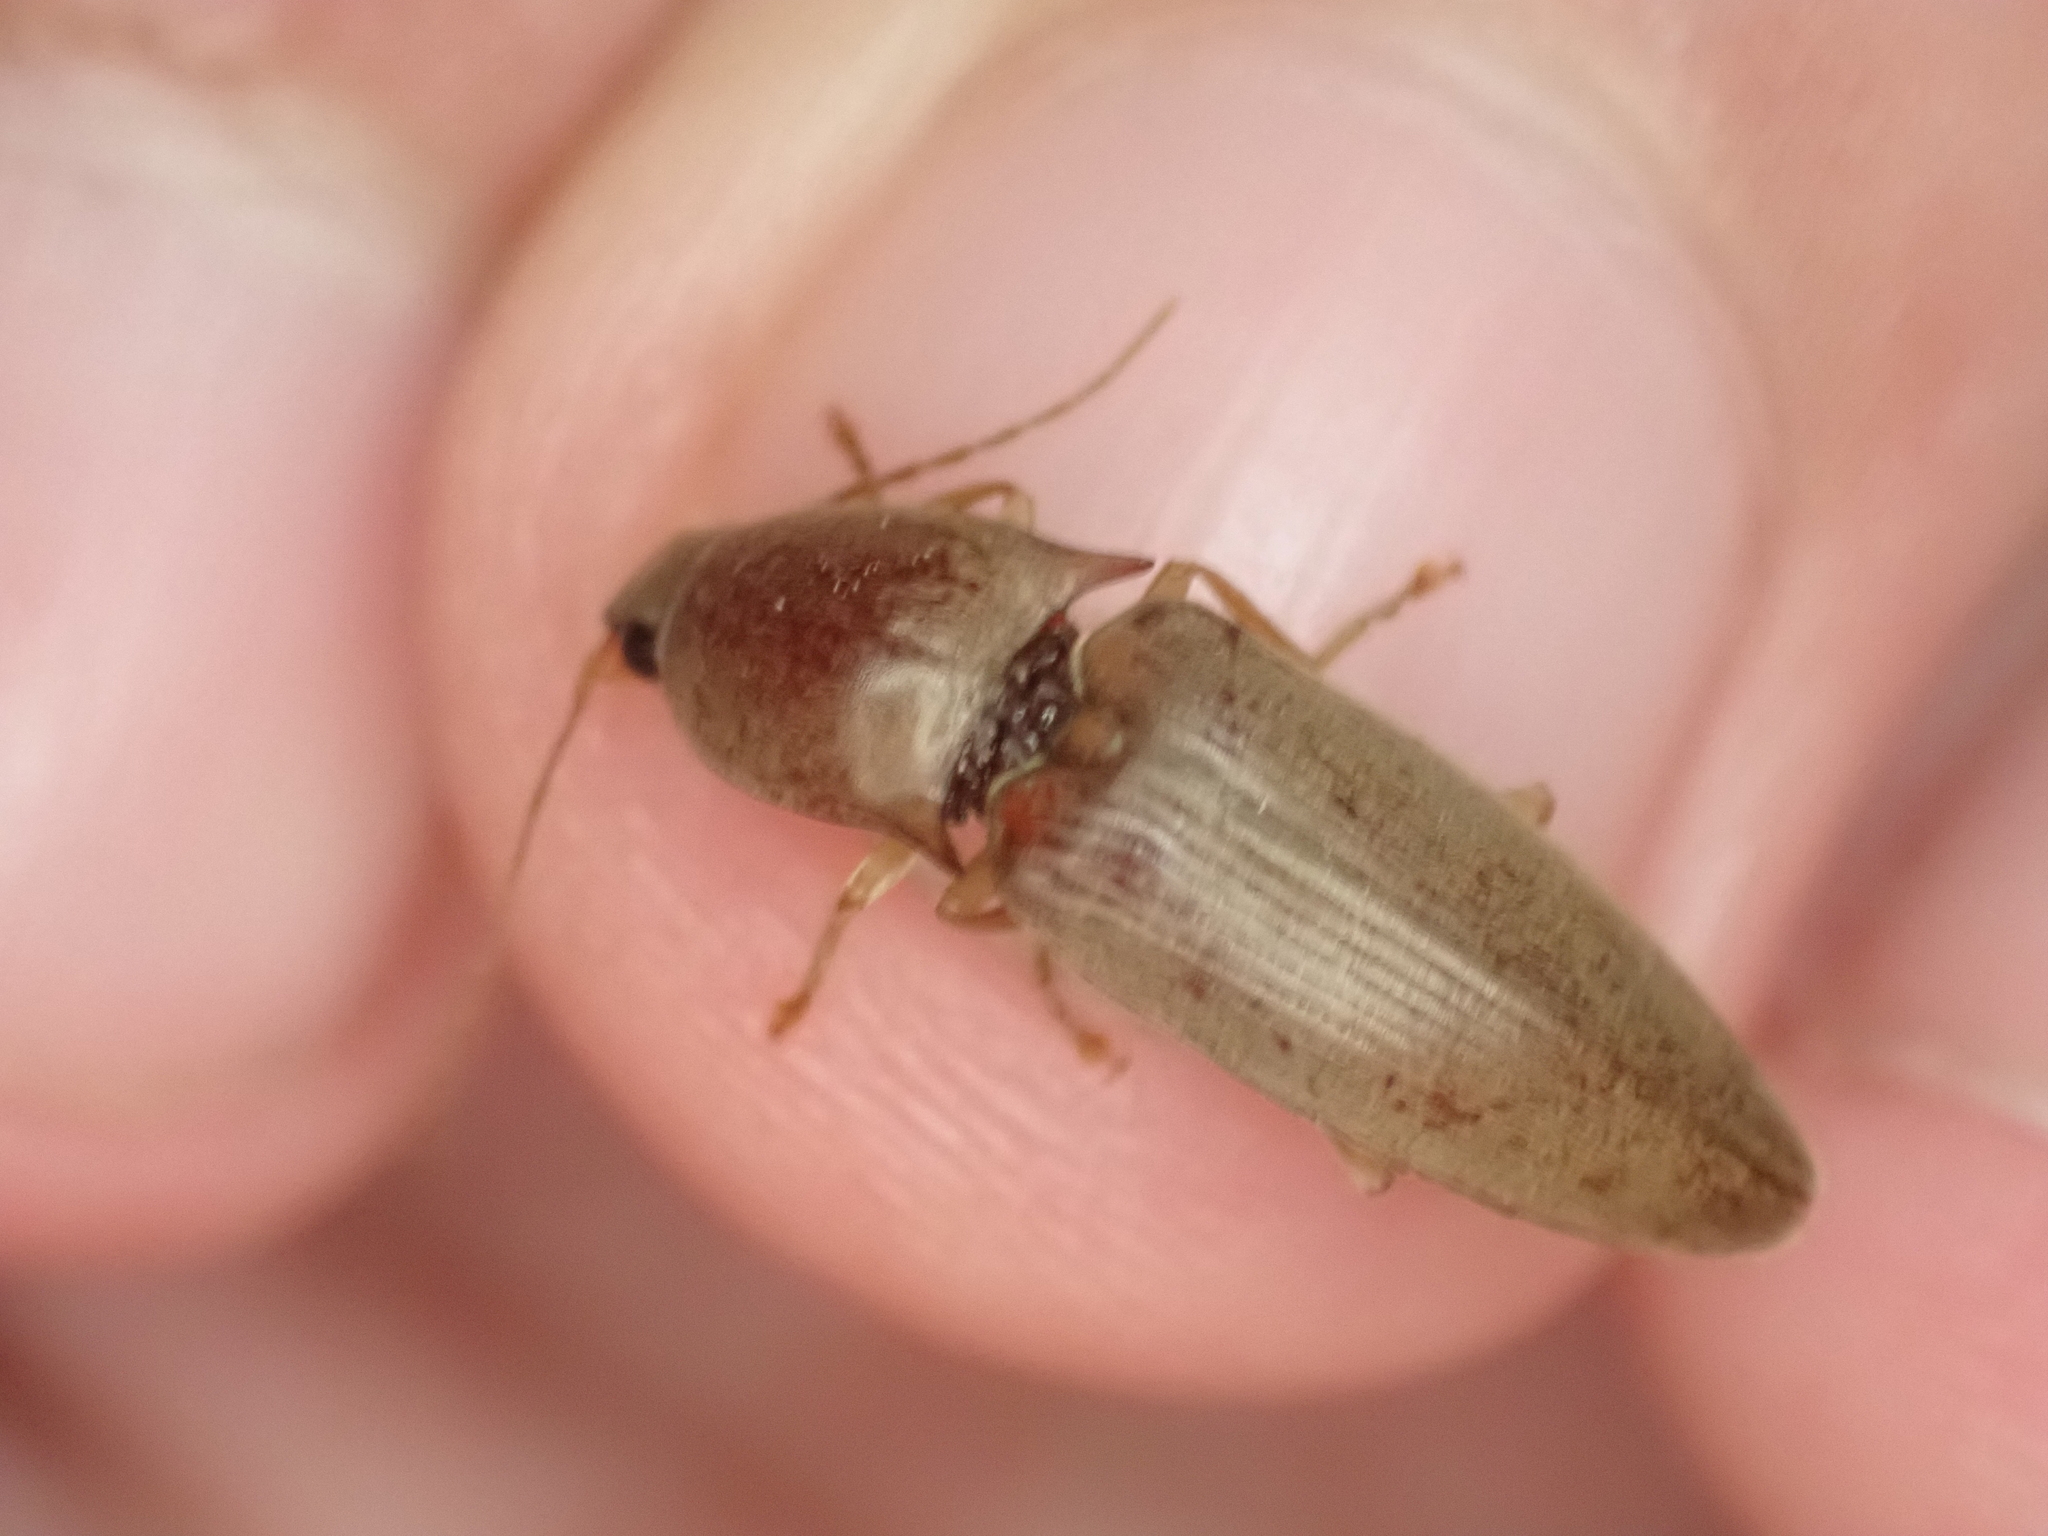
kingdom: Animalia
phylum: Arthropoda
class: Insecta
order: Coleoptera
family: Elateridae
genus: Monocrepidius
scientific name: Monocrepidius lividus
